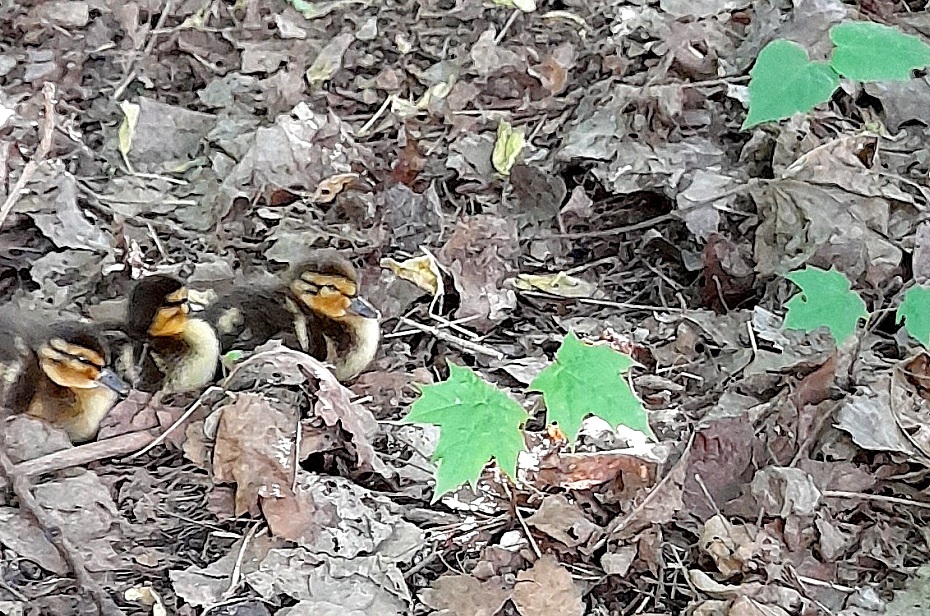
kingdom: Plantae
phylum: Tracheophyta
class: Magnoliopsida
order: Sapindales
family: Sapindaceae
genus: Acer
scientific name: Acer platanoides
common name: Norway maple
